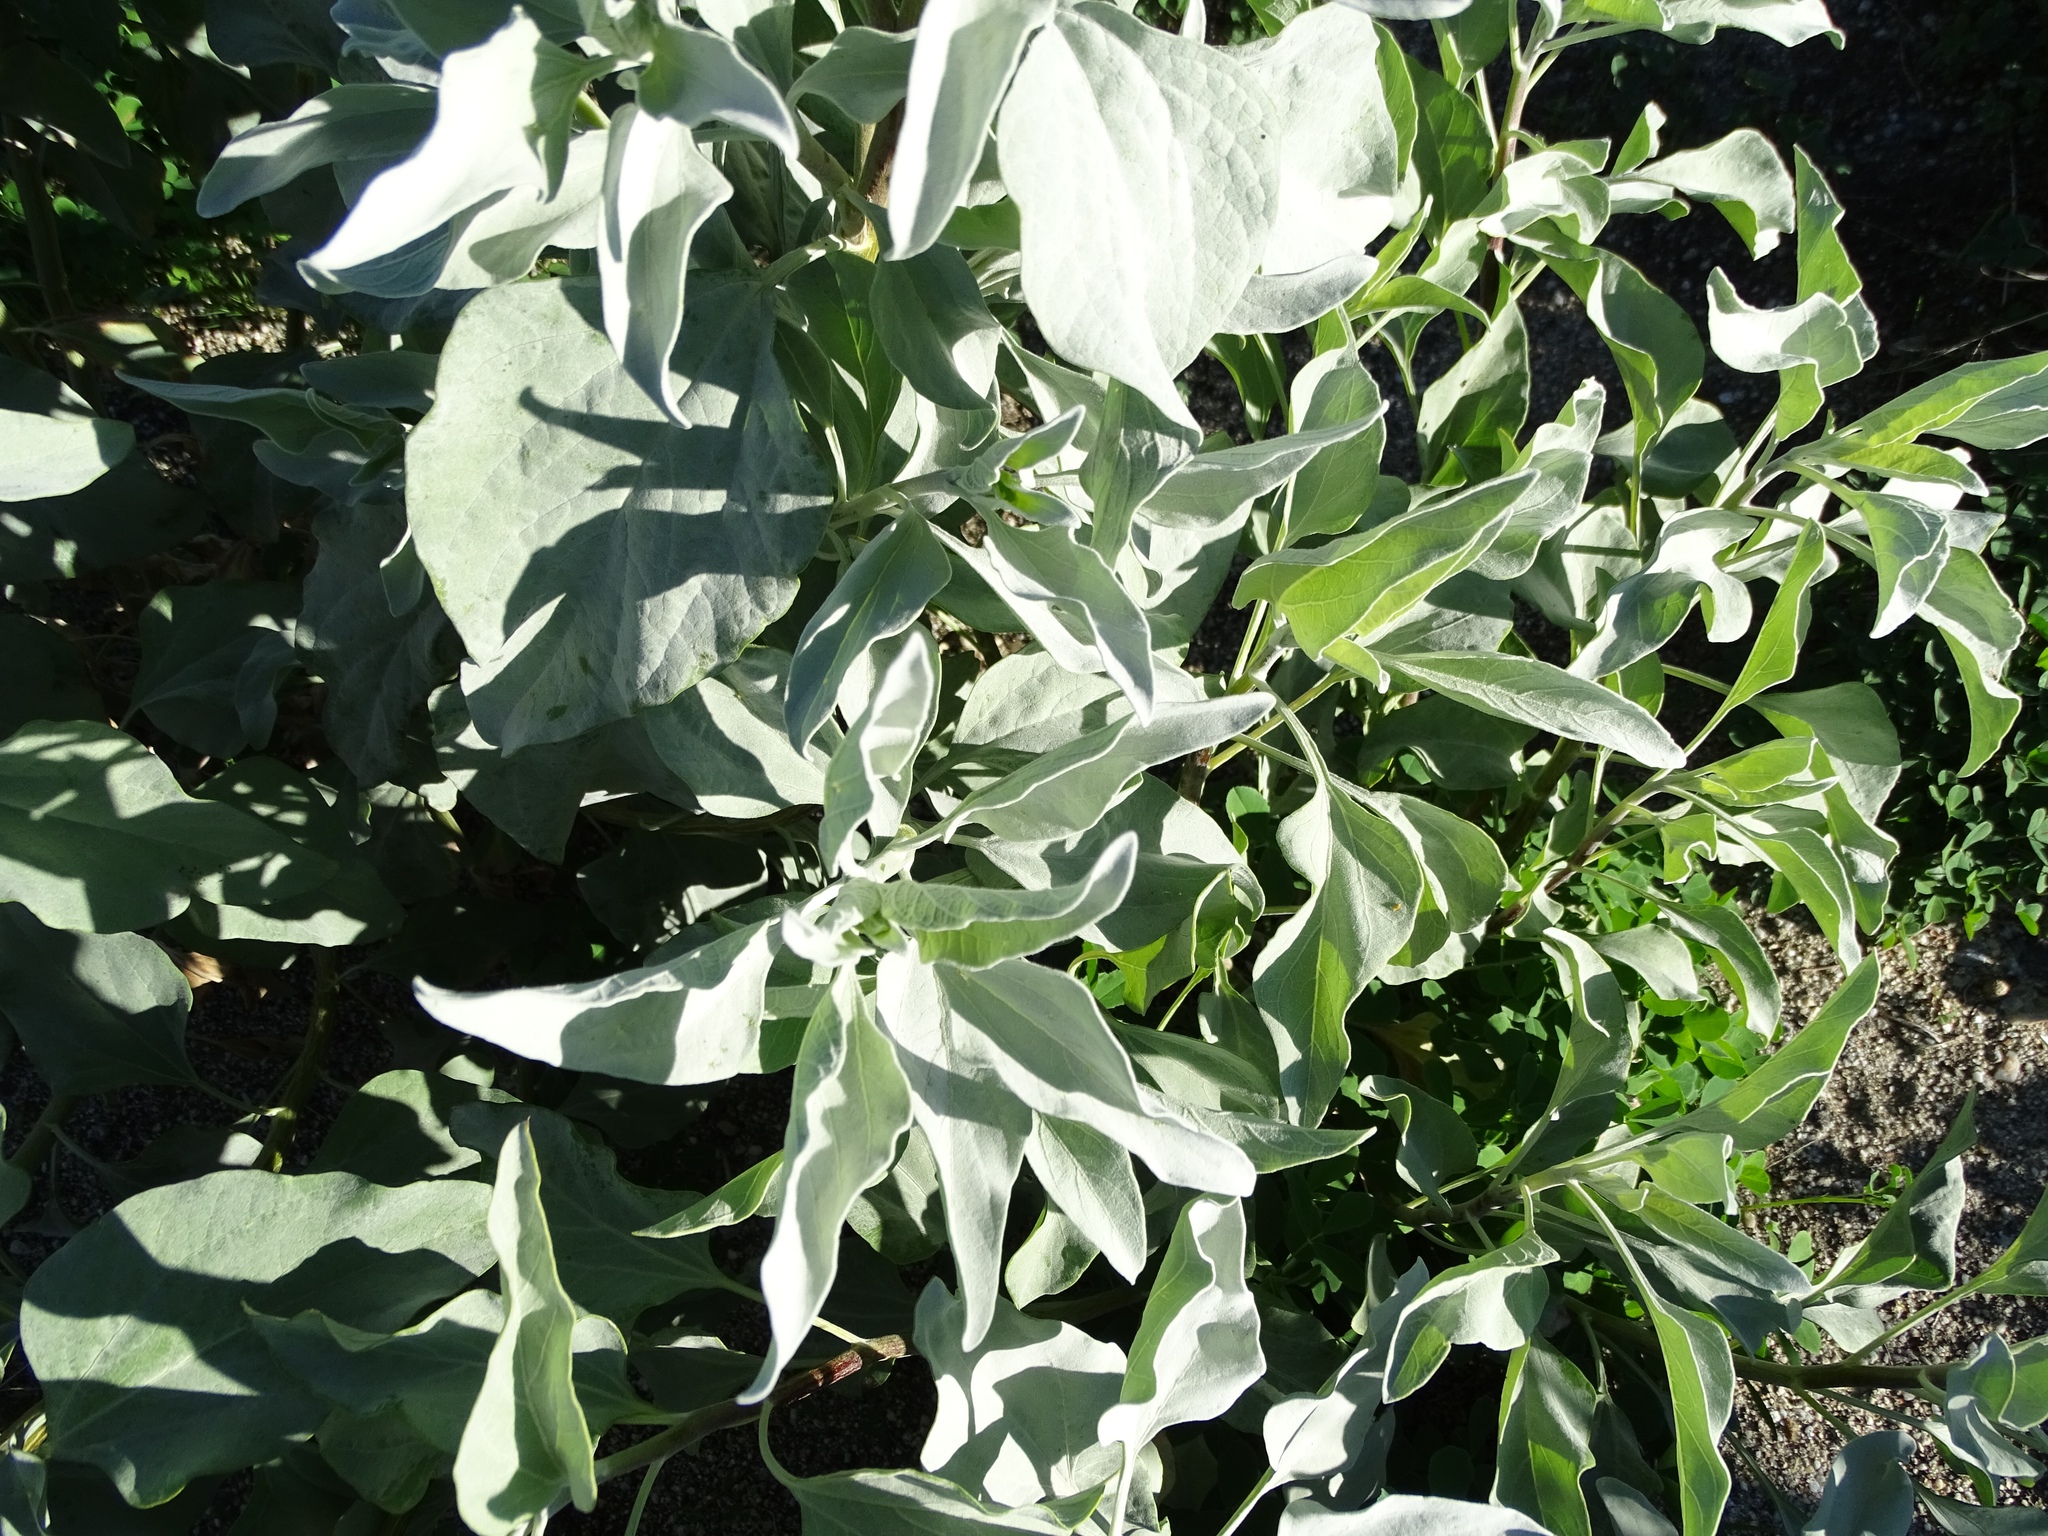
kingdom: Plantae
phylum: Tracheophyta
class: Magnoliopsida
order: Asterales
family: Asteraceae
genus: Encelia
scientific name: Encelia farinosa
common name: Brittlebush
